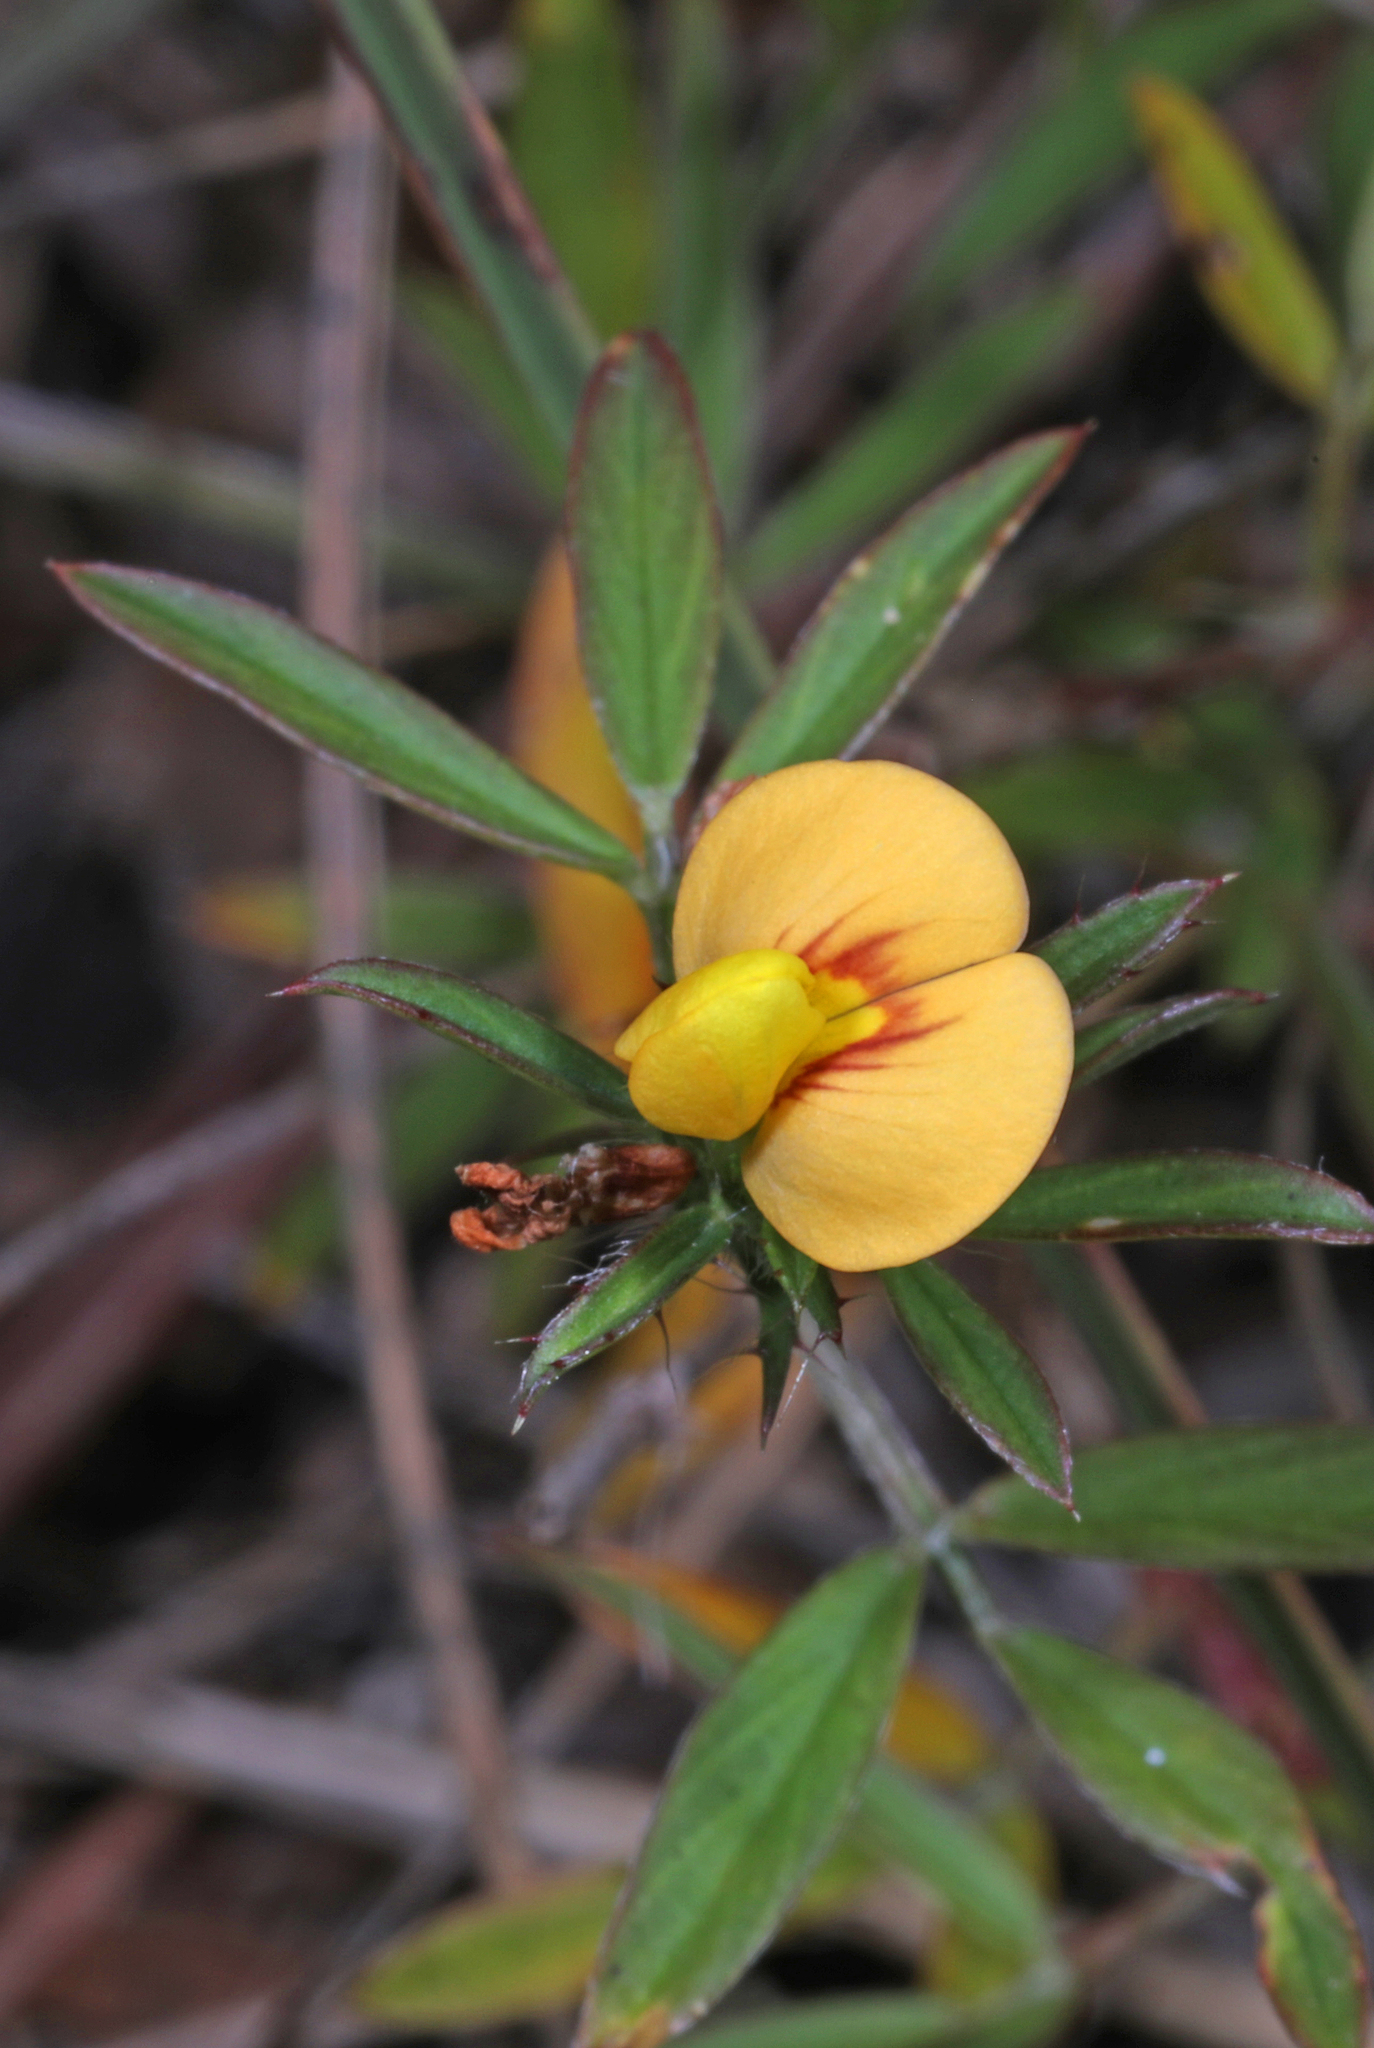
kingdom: Plantae
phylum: Tracheophyta
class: Magnoliopsida
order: Fabales
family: Fabaceae
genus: Stylosanthes
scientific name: Stylosanthes biflora
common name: Two-flower pencil-flower
